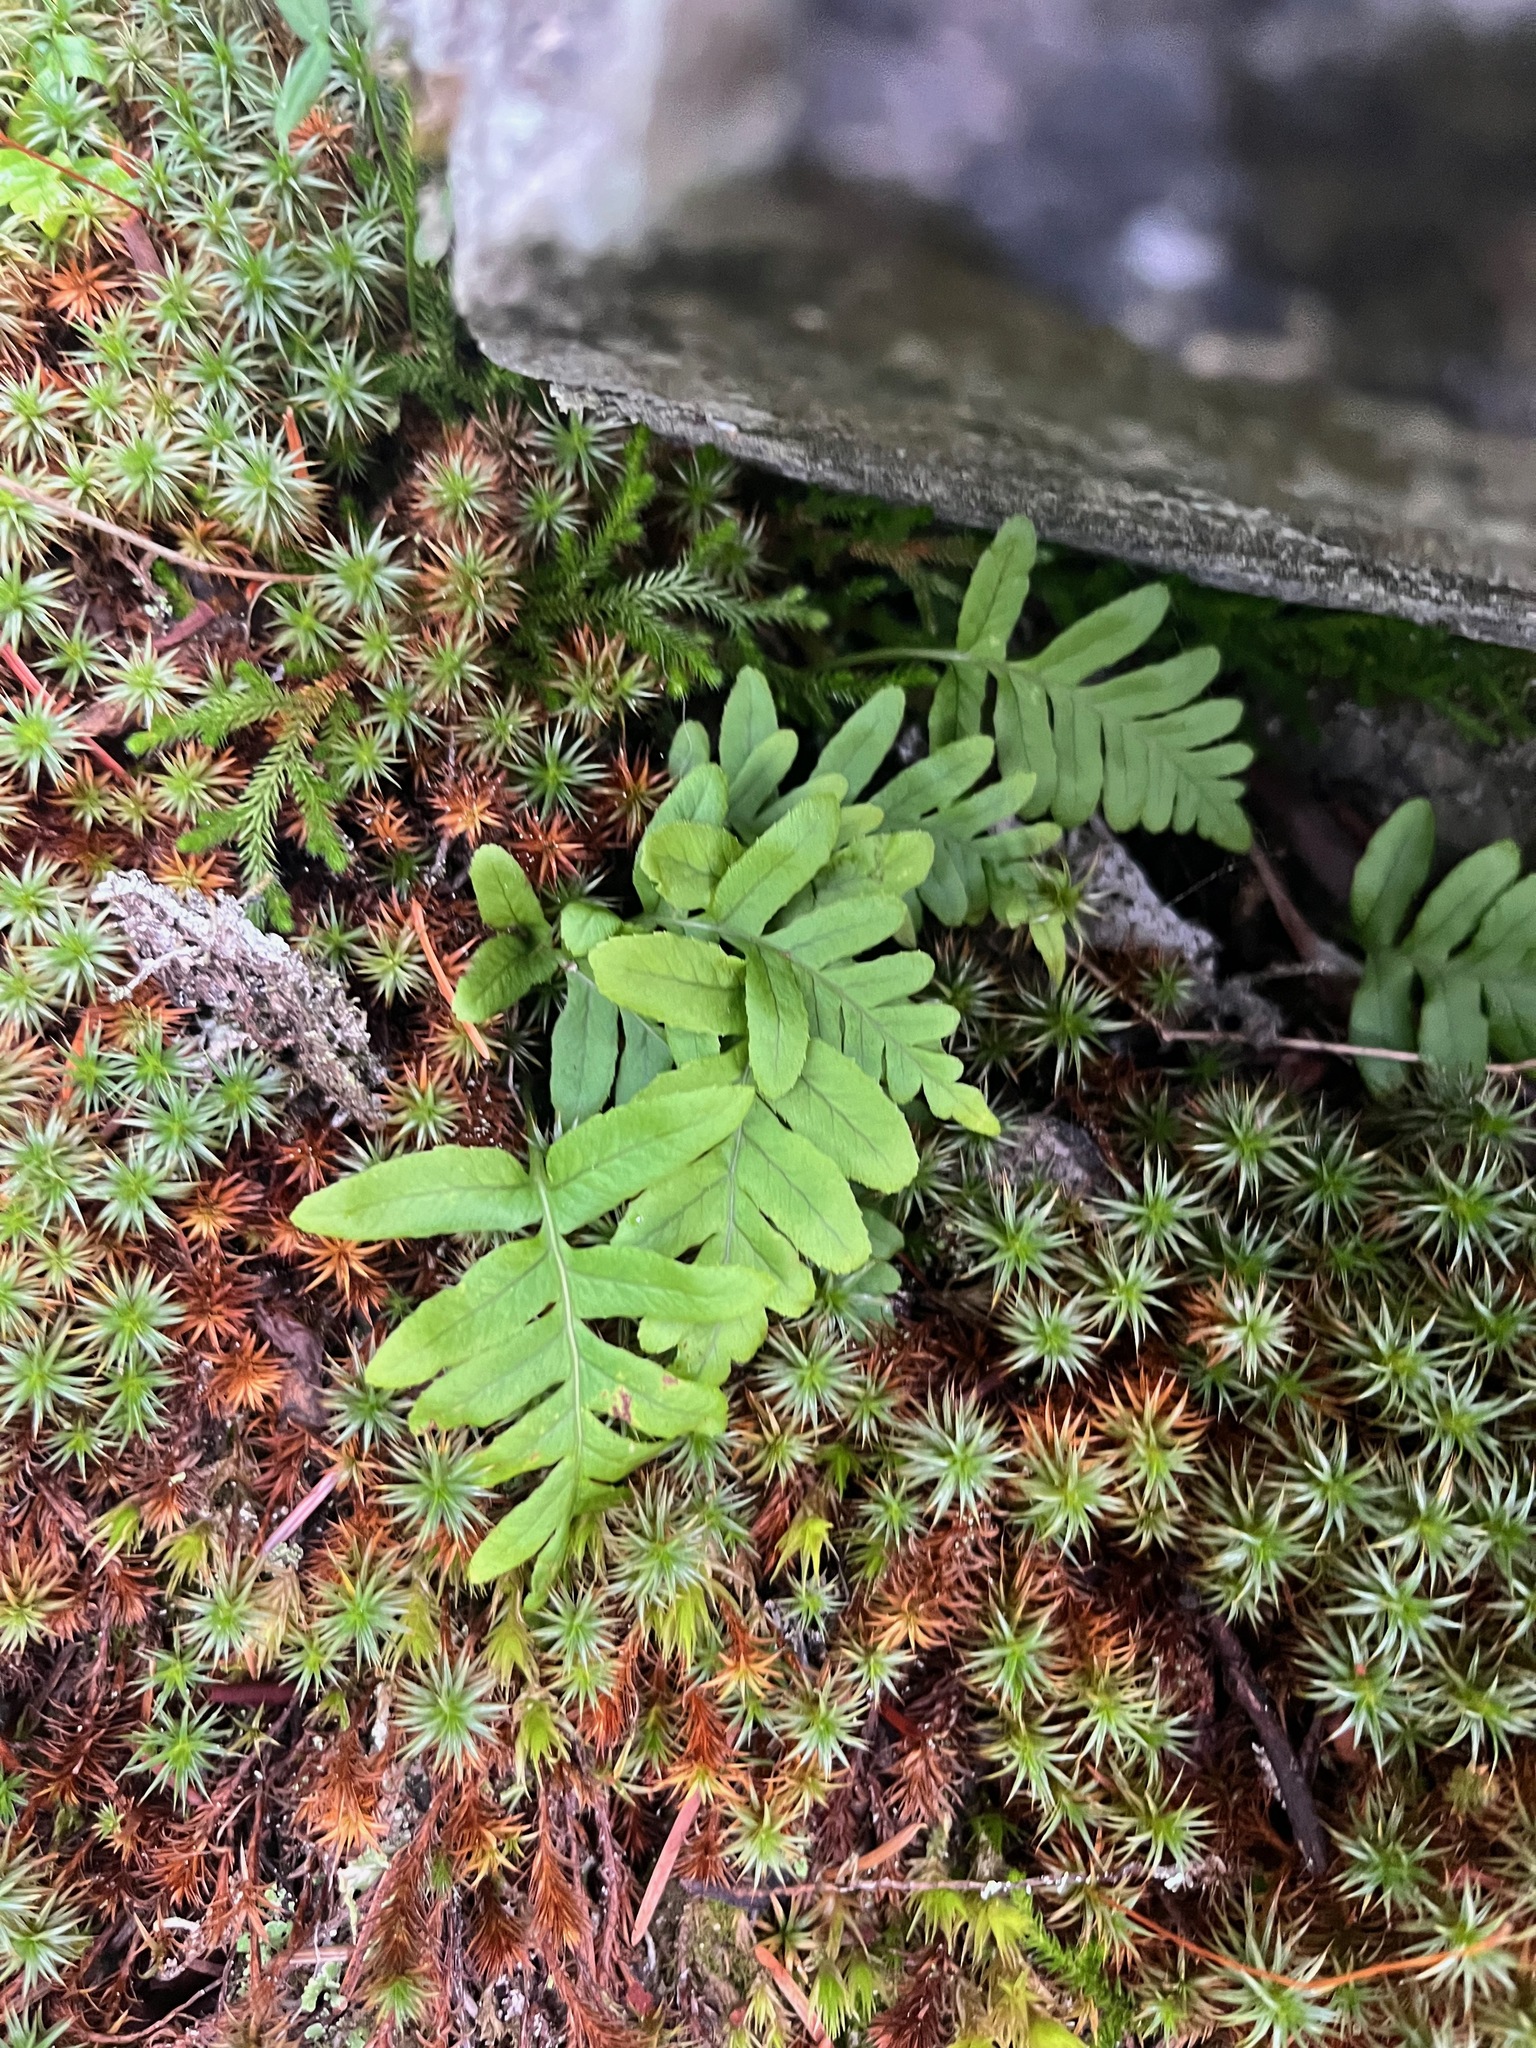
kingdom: Plantae
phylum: Tracheophyta
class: Polypodiopsida
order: Polypodiales
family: Polypodiaceae
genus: Polypodium
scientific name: Polypodium glycyrrhiza
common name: Licorice fern
